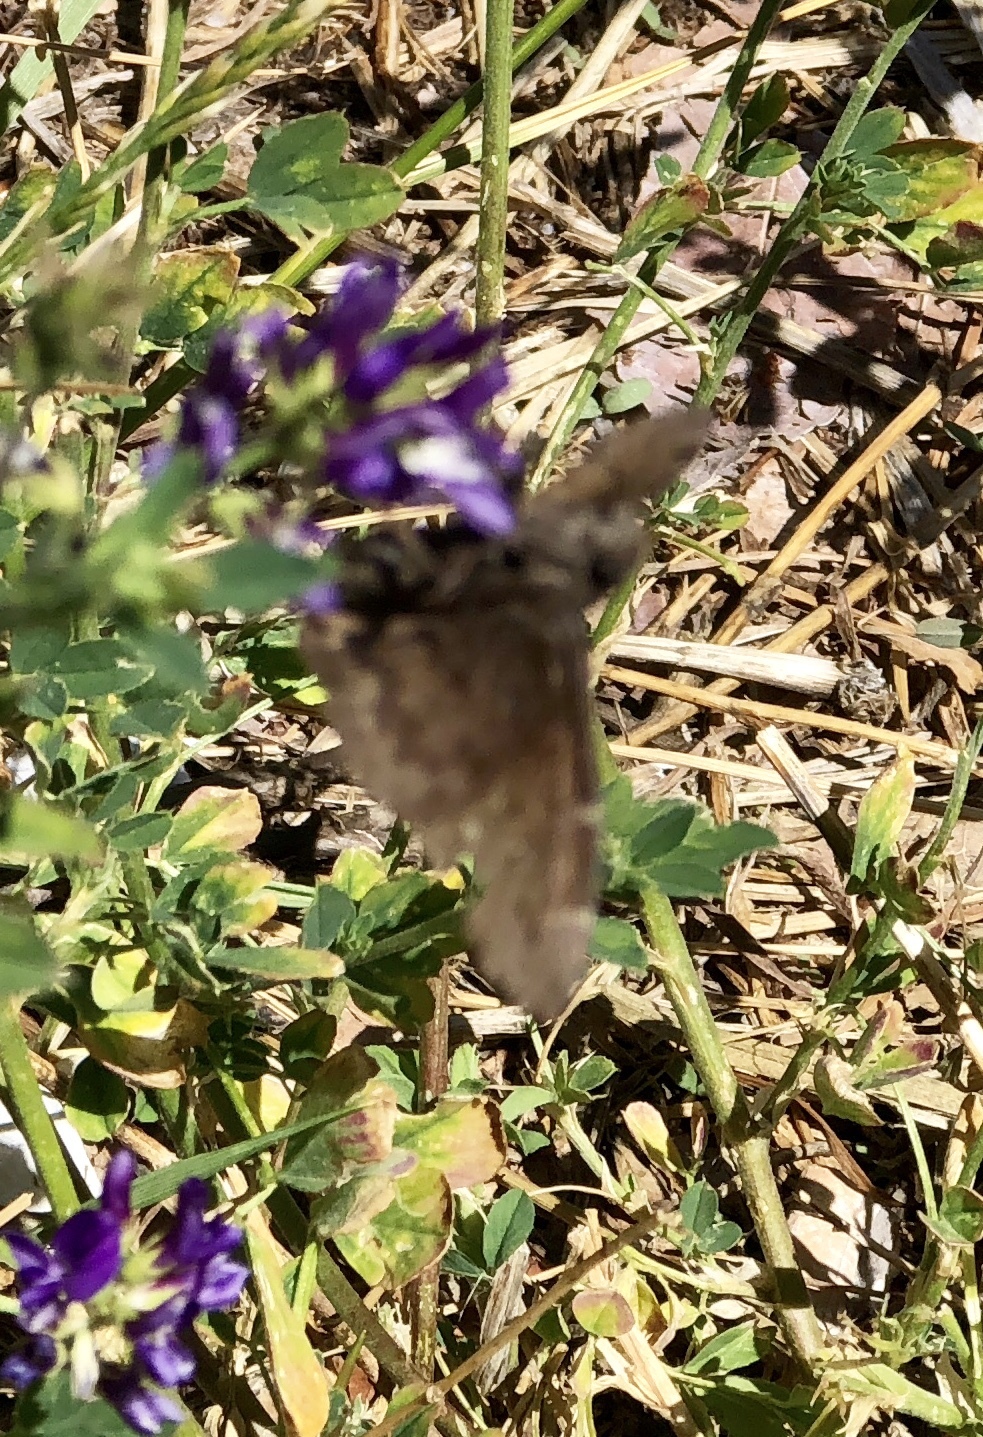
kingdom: Animalia
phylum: Arthropoda
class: Insecta
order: Lepidoptera
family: Hesperiidae
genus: Thorybes
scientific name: Thorybes pylades
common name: Northern cloudywing
